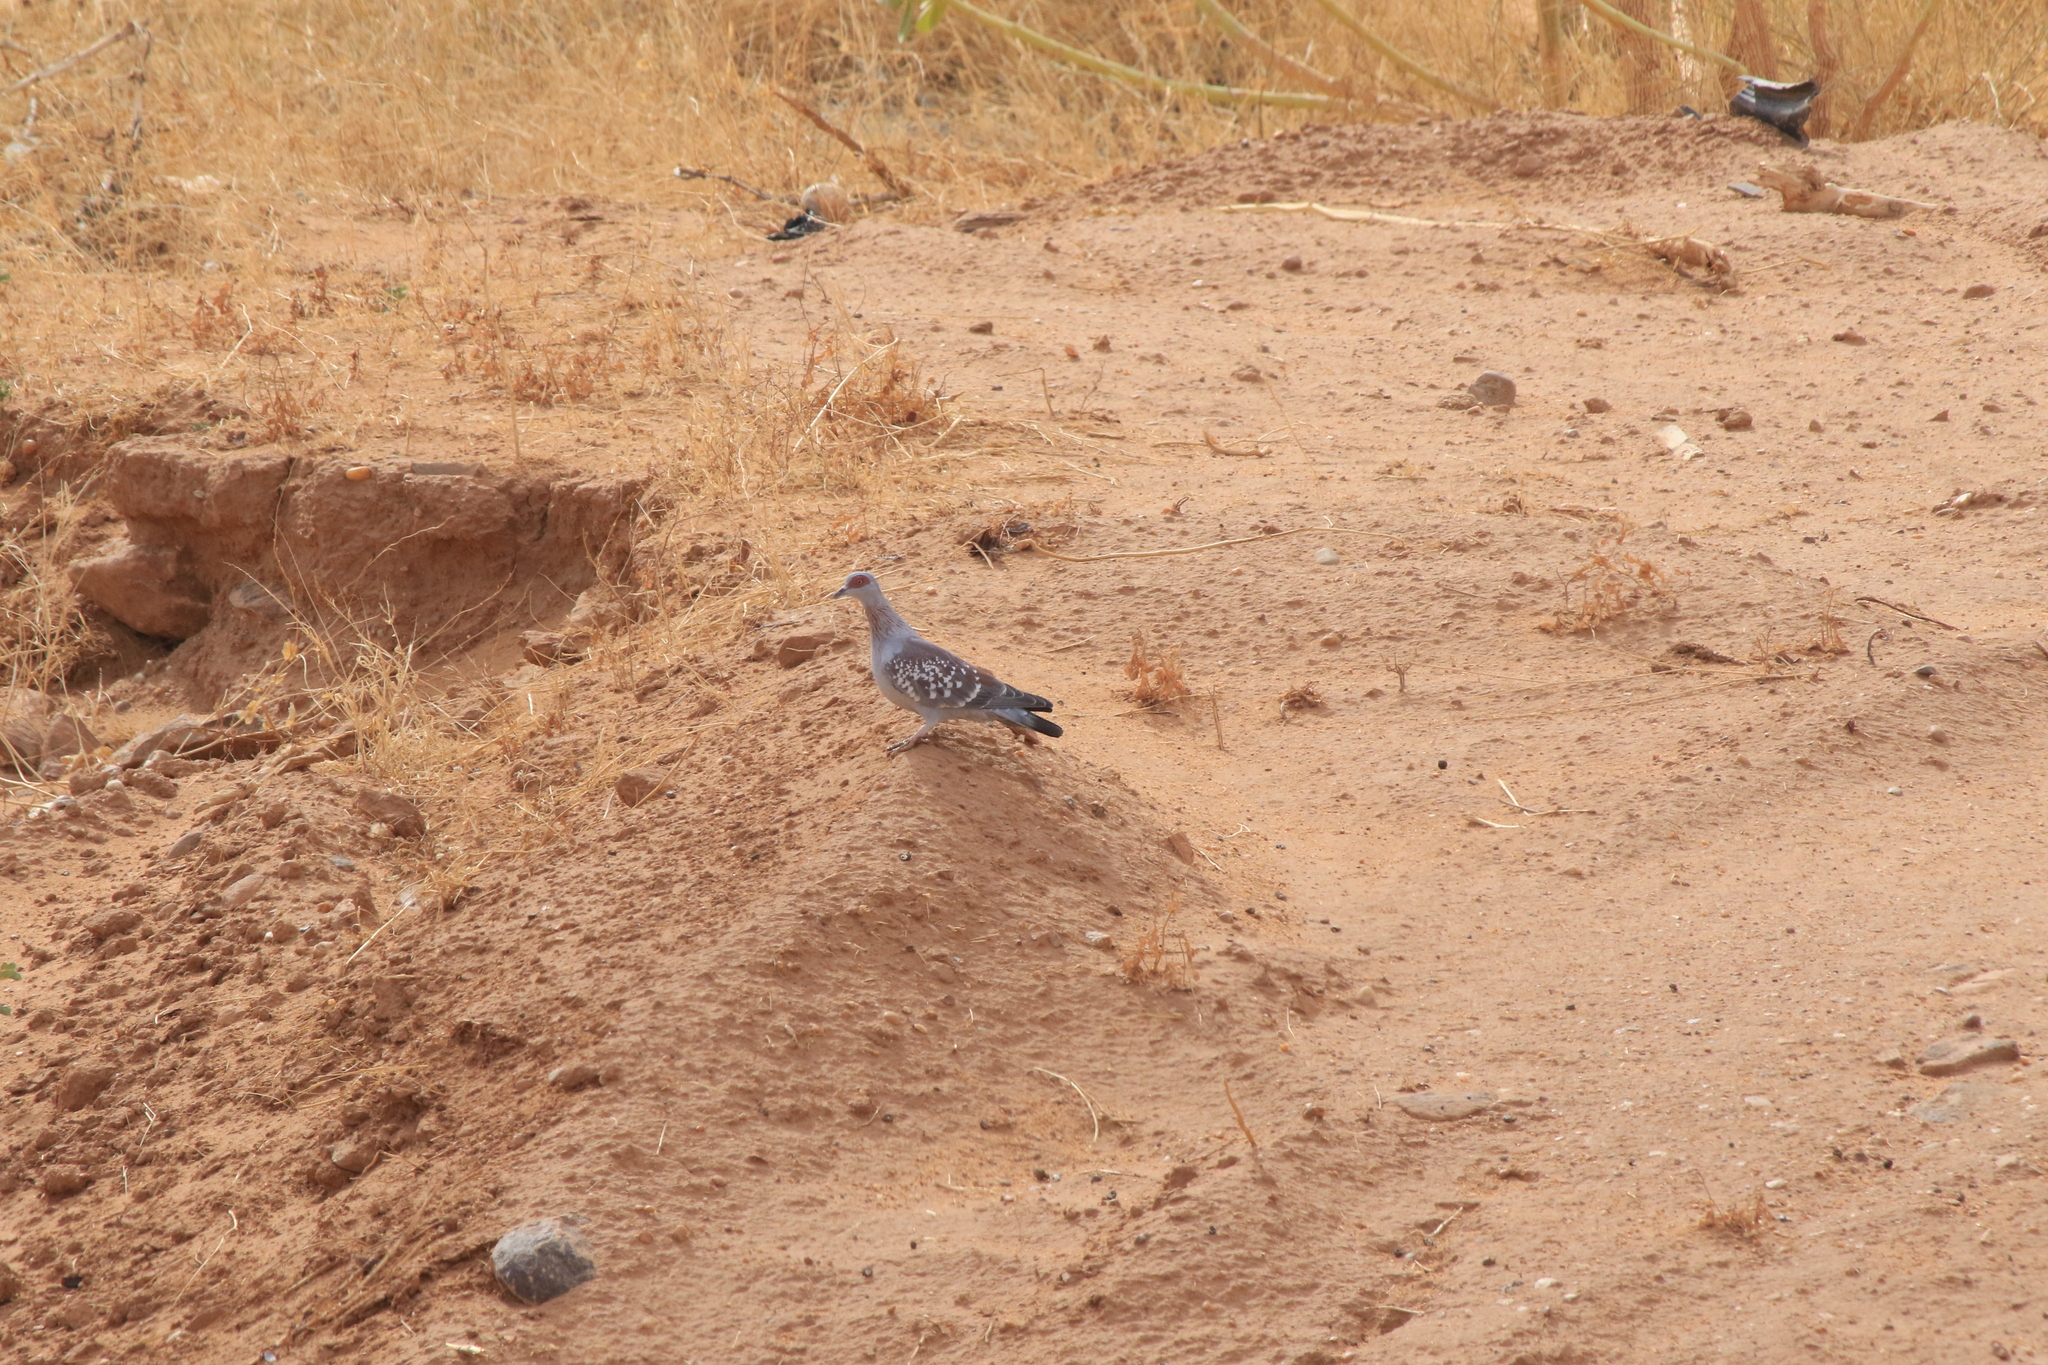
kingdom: Animalia
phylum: Chordata
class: Aves
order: Columbiformes
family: Columbidae
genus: Columba
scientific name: Columba guinea
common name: Speckled pigeon
